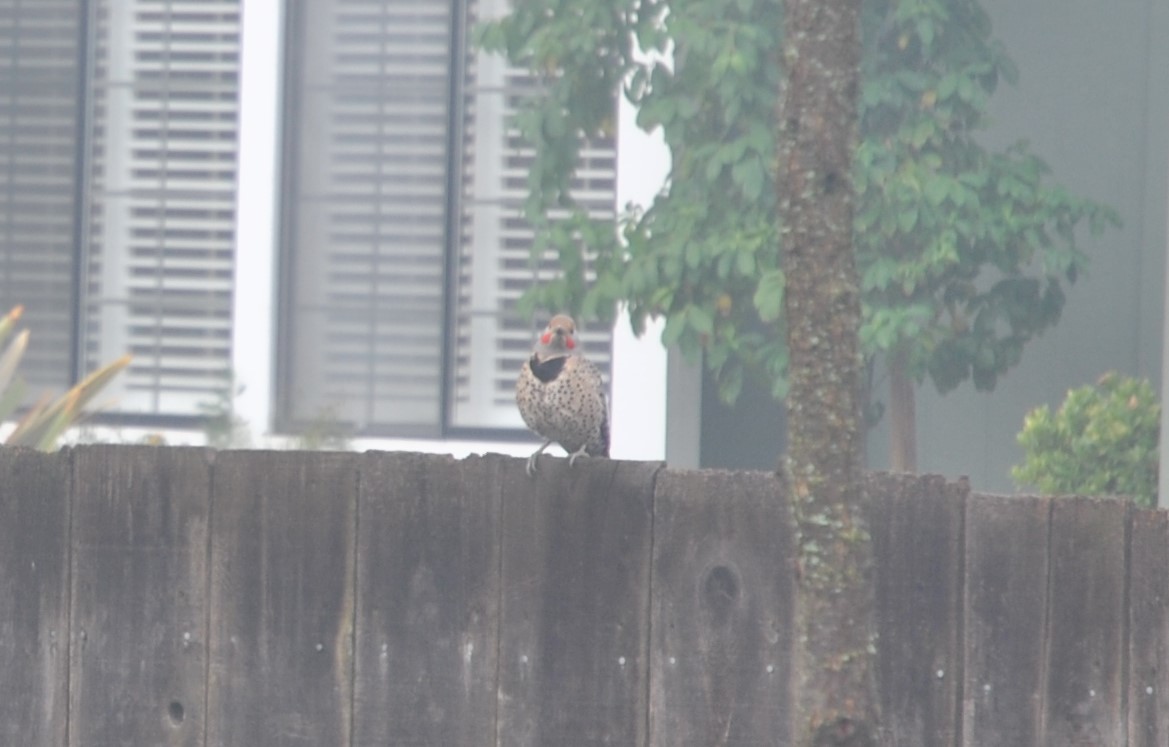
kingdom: Animalia
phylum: Chordata
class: Aves
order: Piciformes
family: Picidae
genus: Colaptes
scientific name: Colaptes auratus
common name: Northern flicker
